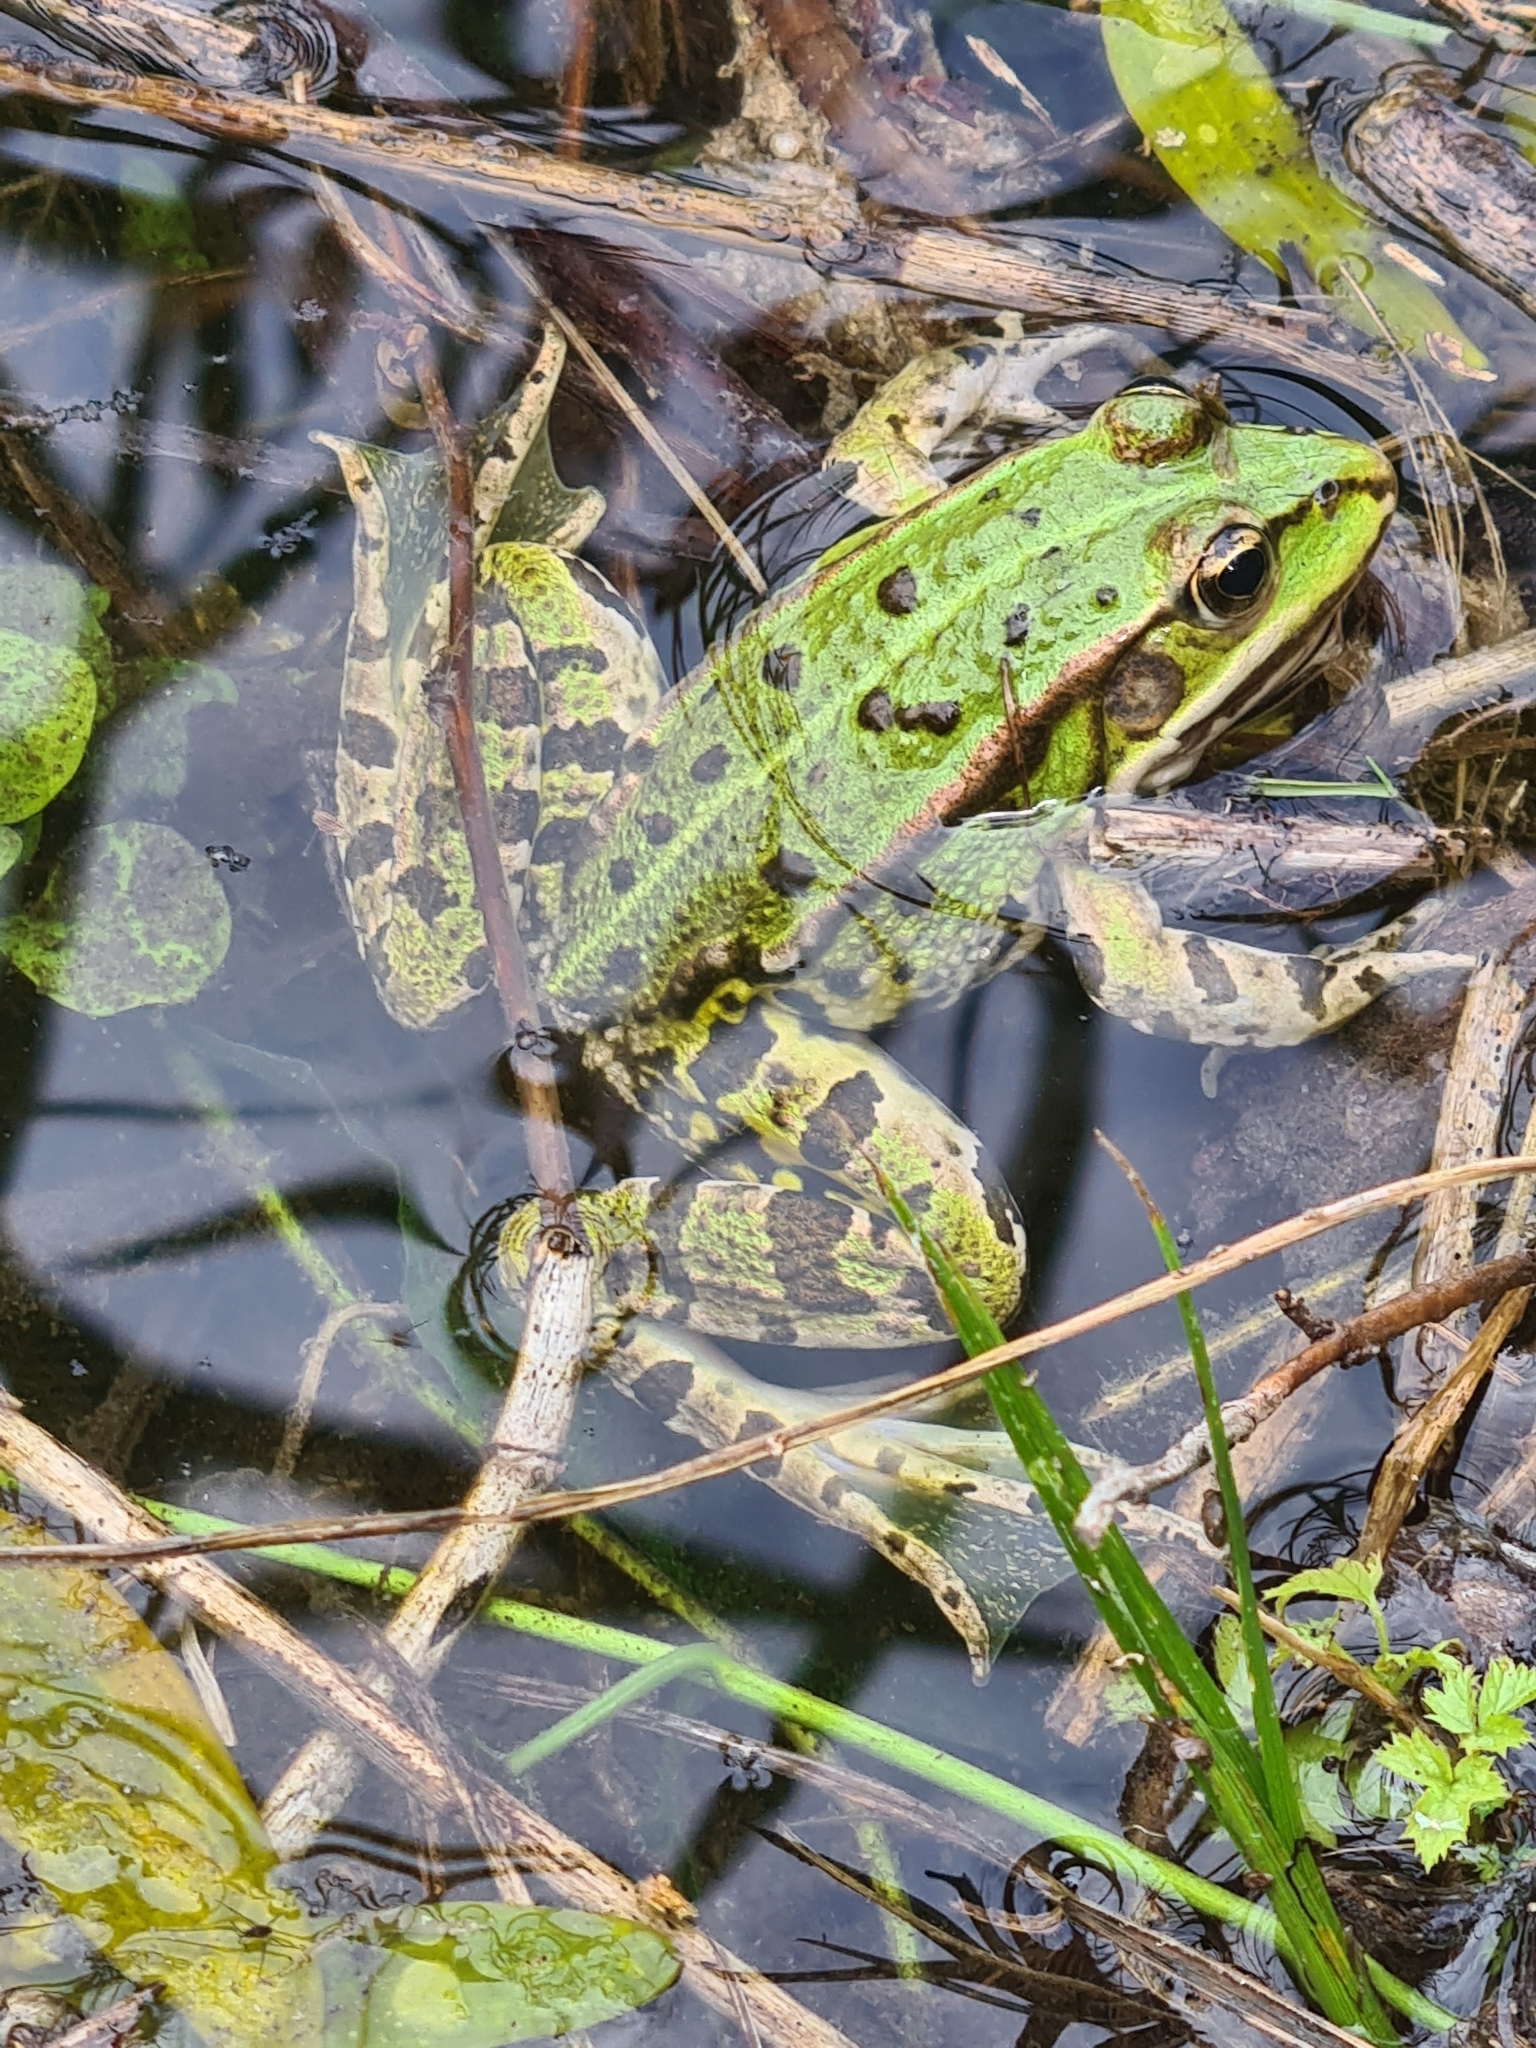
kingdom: Animalia
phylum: Chordata
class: Amphibia
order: Anura
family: Ranidae
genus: Pelophylax
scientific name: Pelophylax
